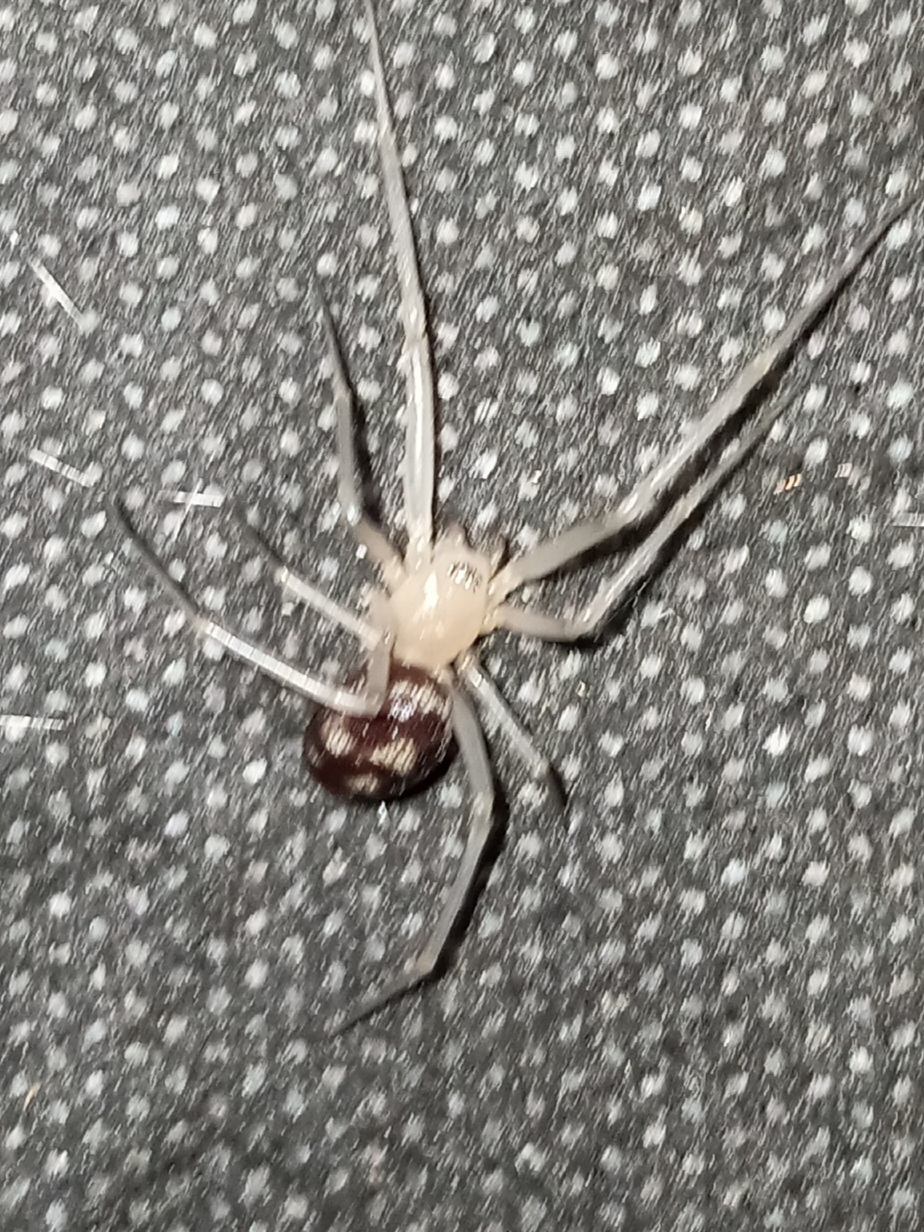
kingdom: Animalia
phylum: Arthropoda
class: Arachnida
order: Araneae
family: Theridiidae
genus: Steatoda
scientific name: Steatoda grossa
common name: False black widow
